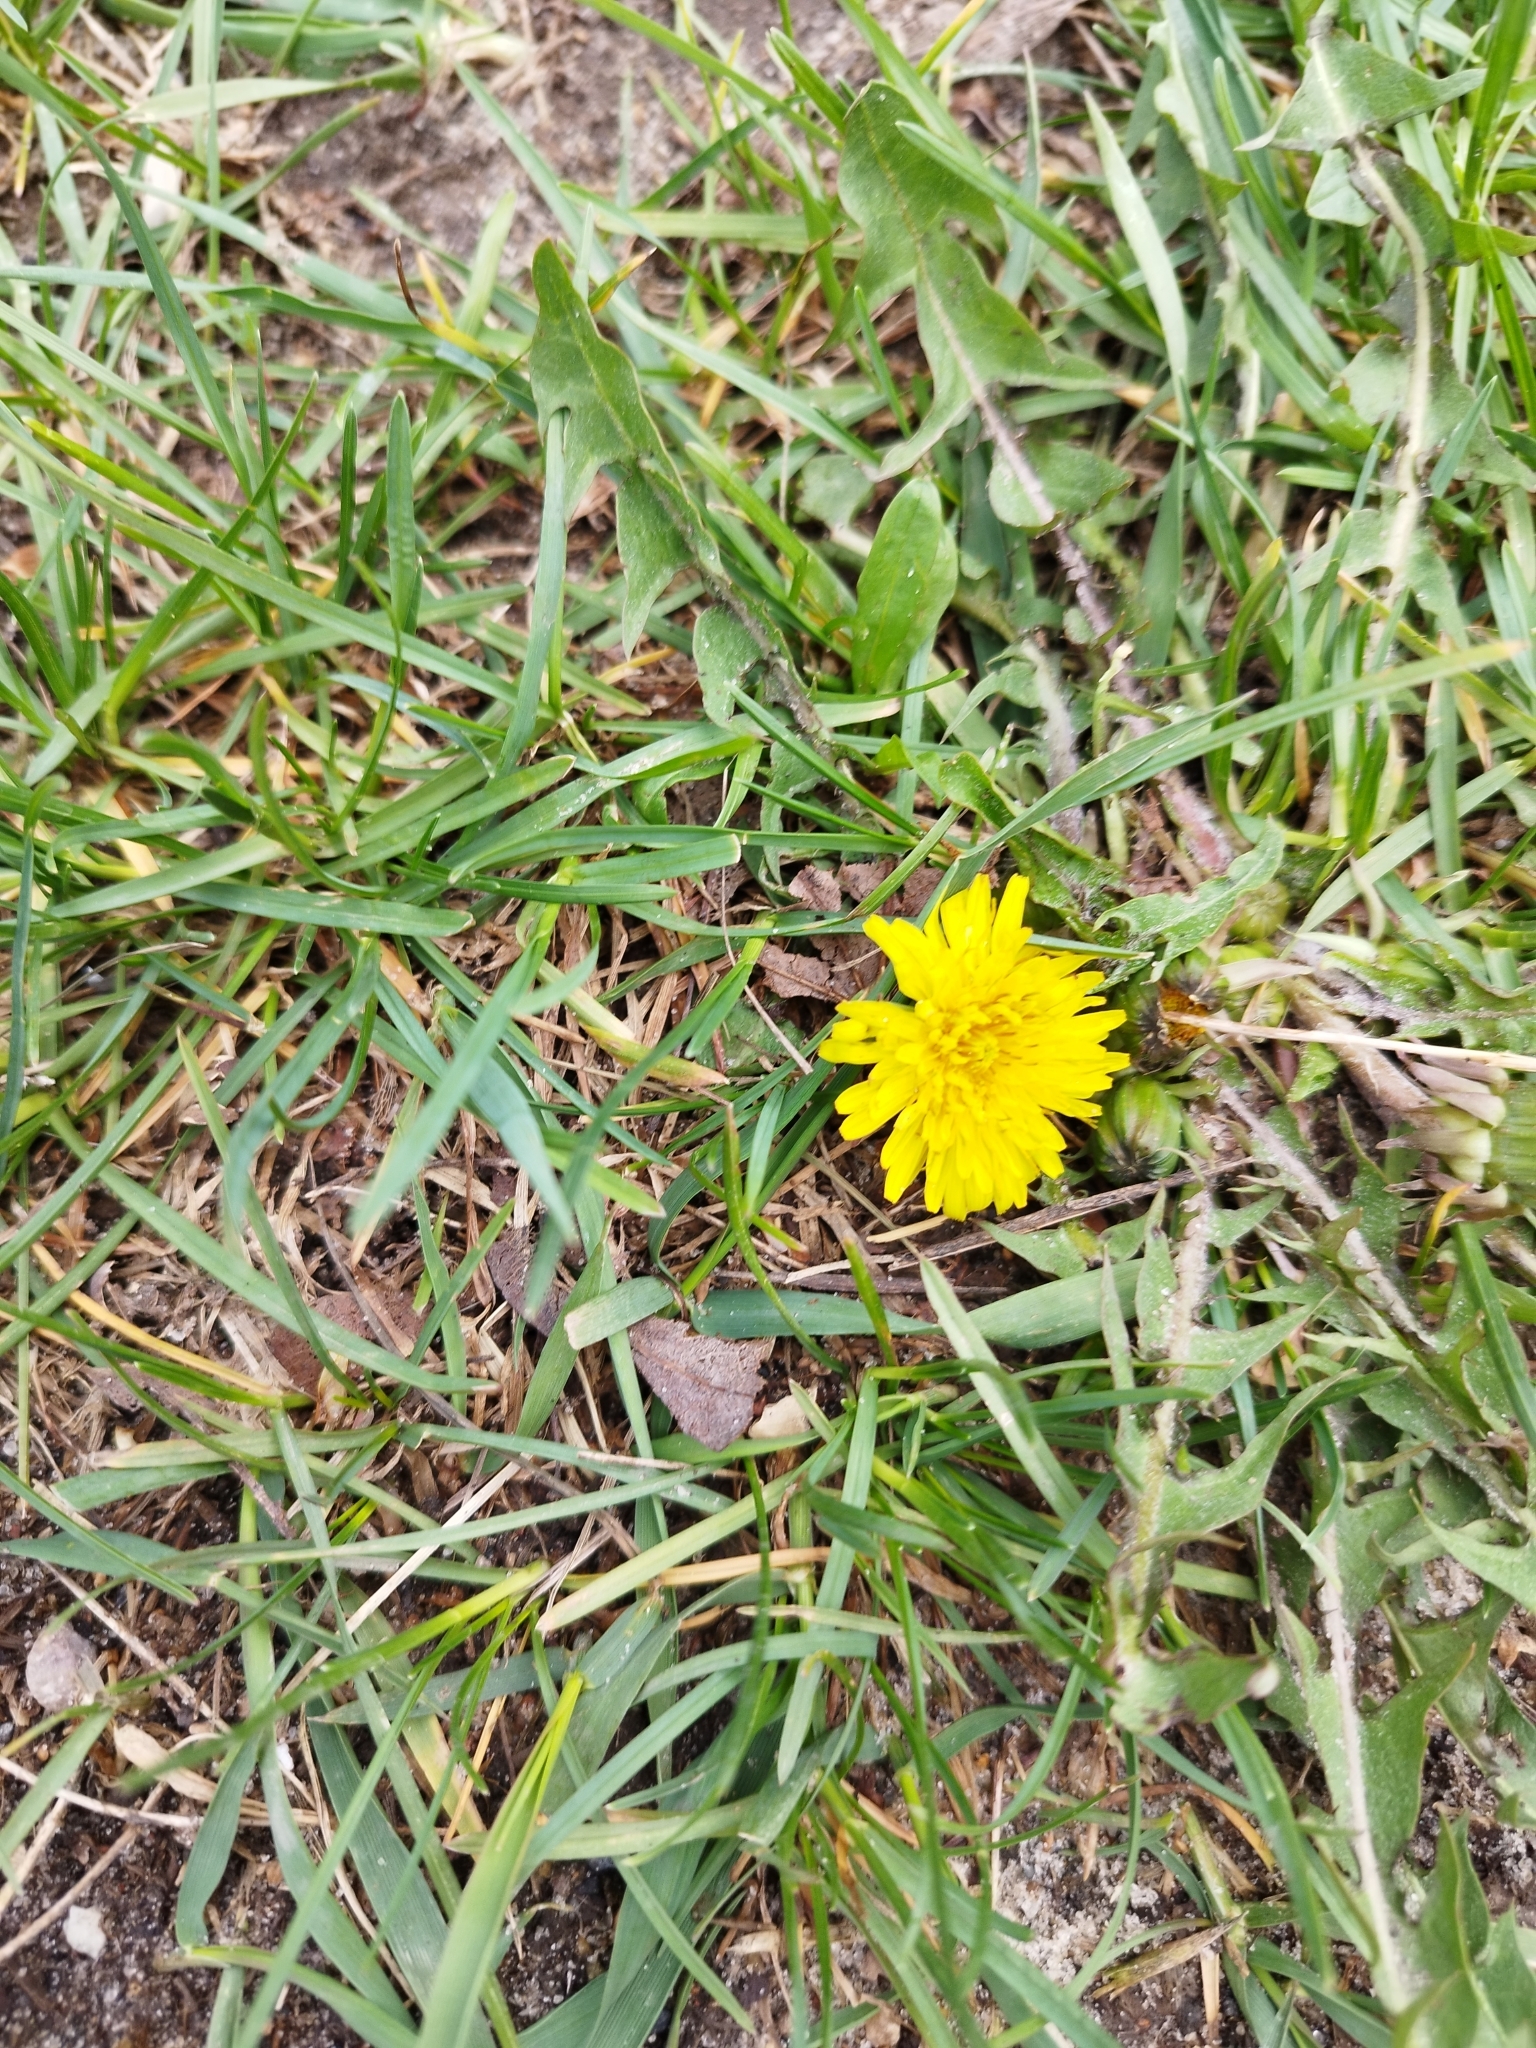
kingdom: Plantae
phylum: Tracheophyta
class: Magnoliopsida
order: Asterales
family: Asteraceae
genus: Taraxacum
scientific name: Taraxacum officinale
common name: Common dandelion
